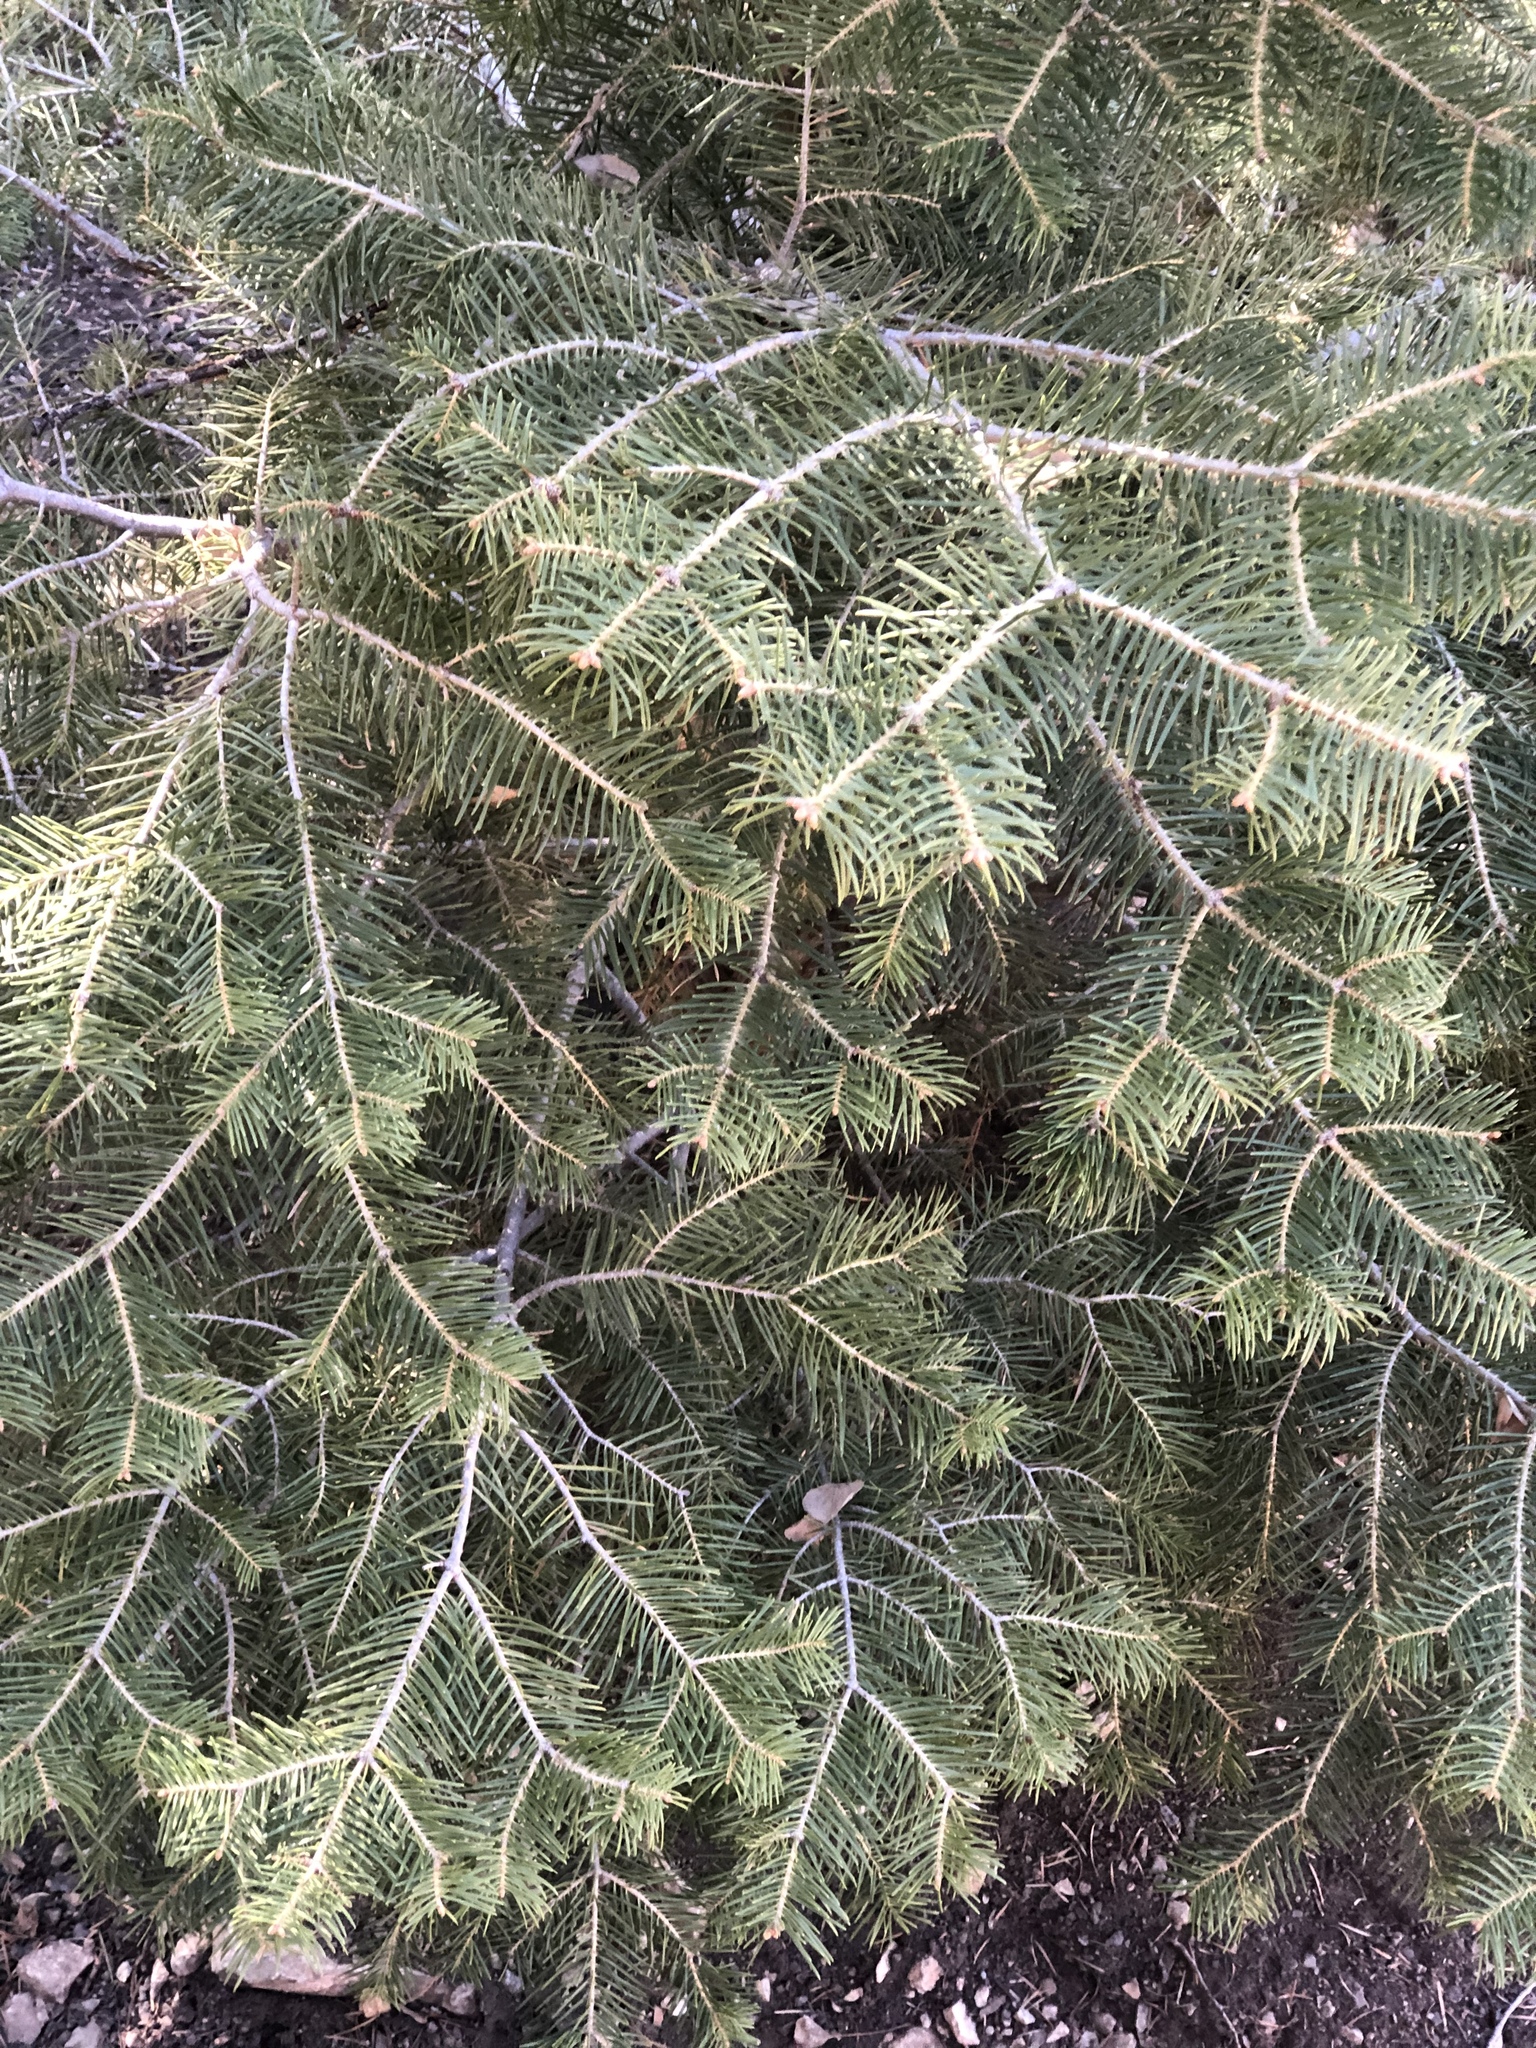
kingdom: Plantae
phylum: Tracheophyta
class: Pinopsida
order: Pinales
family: Pinaceae
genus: Abies
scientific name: Abies concolor
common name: Colorado fir
